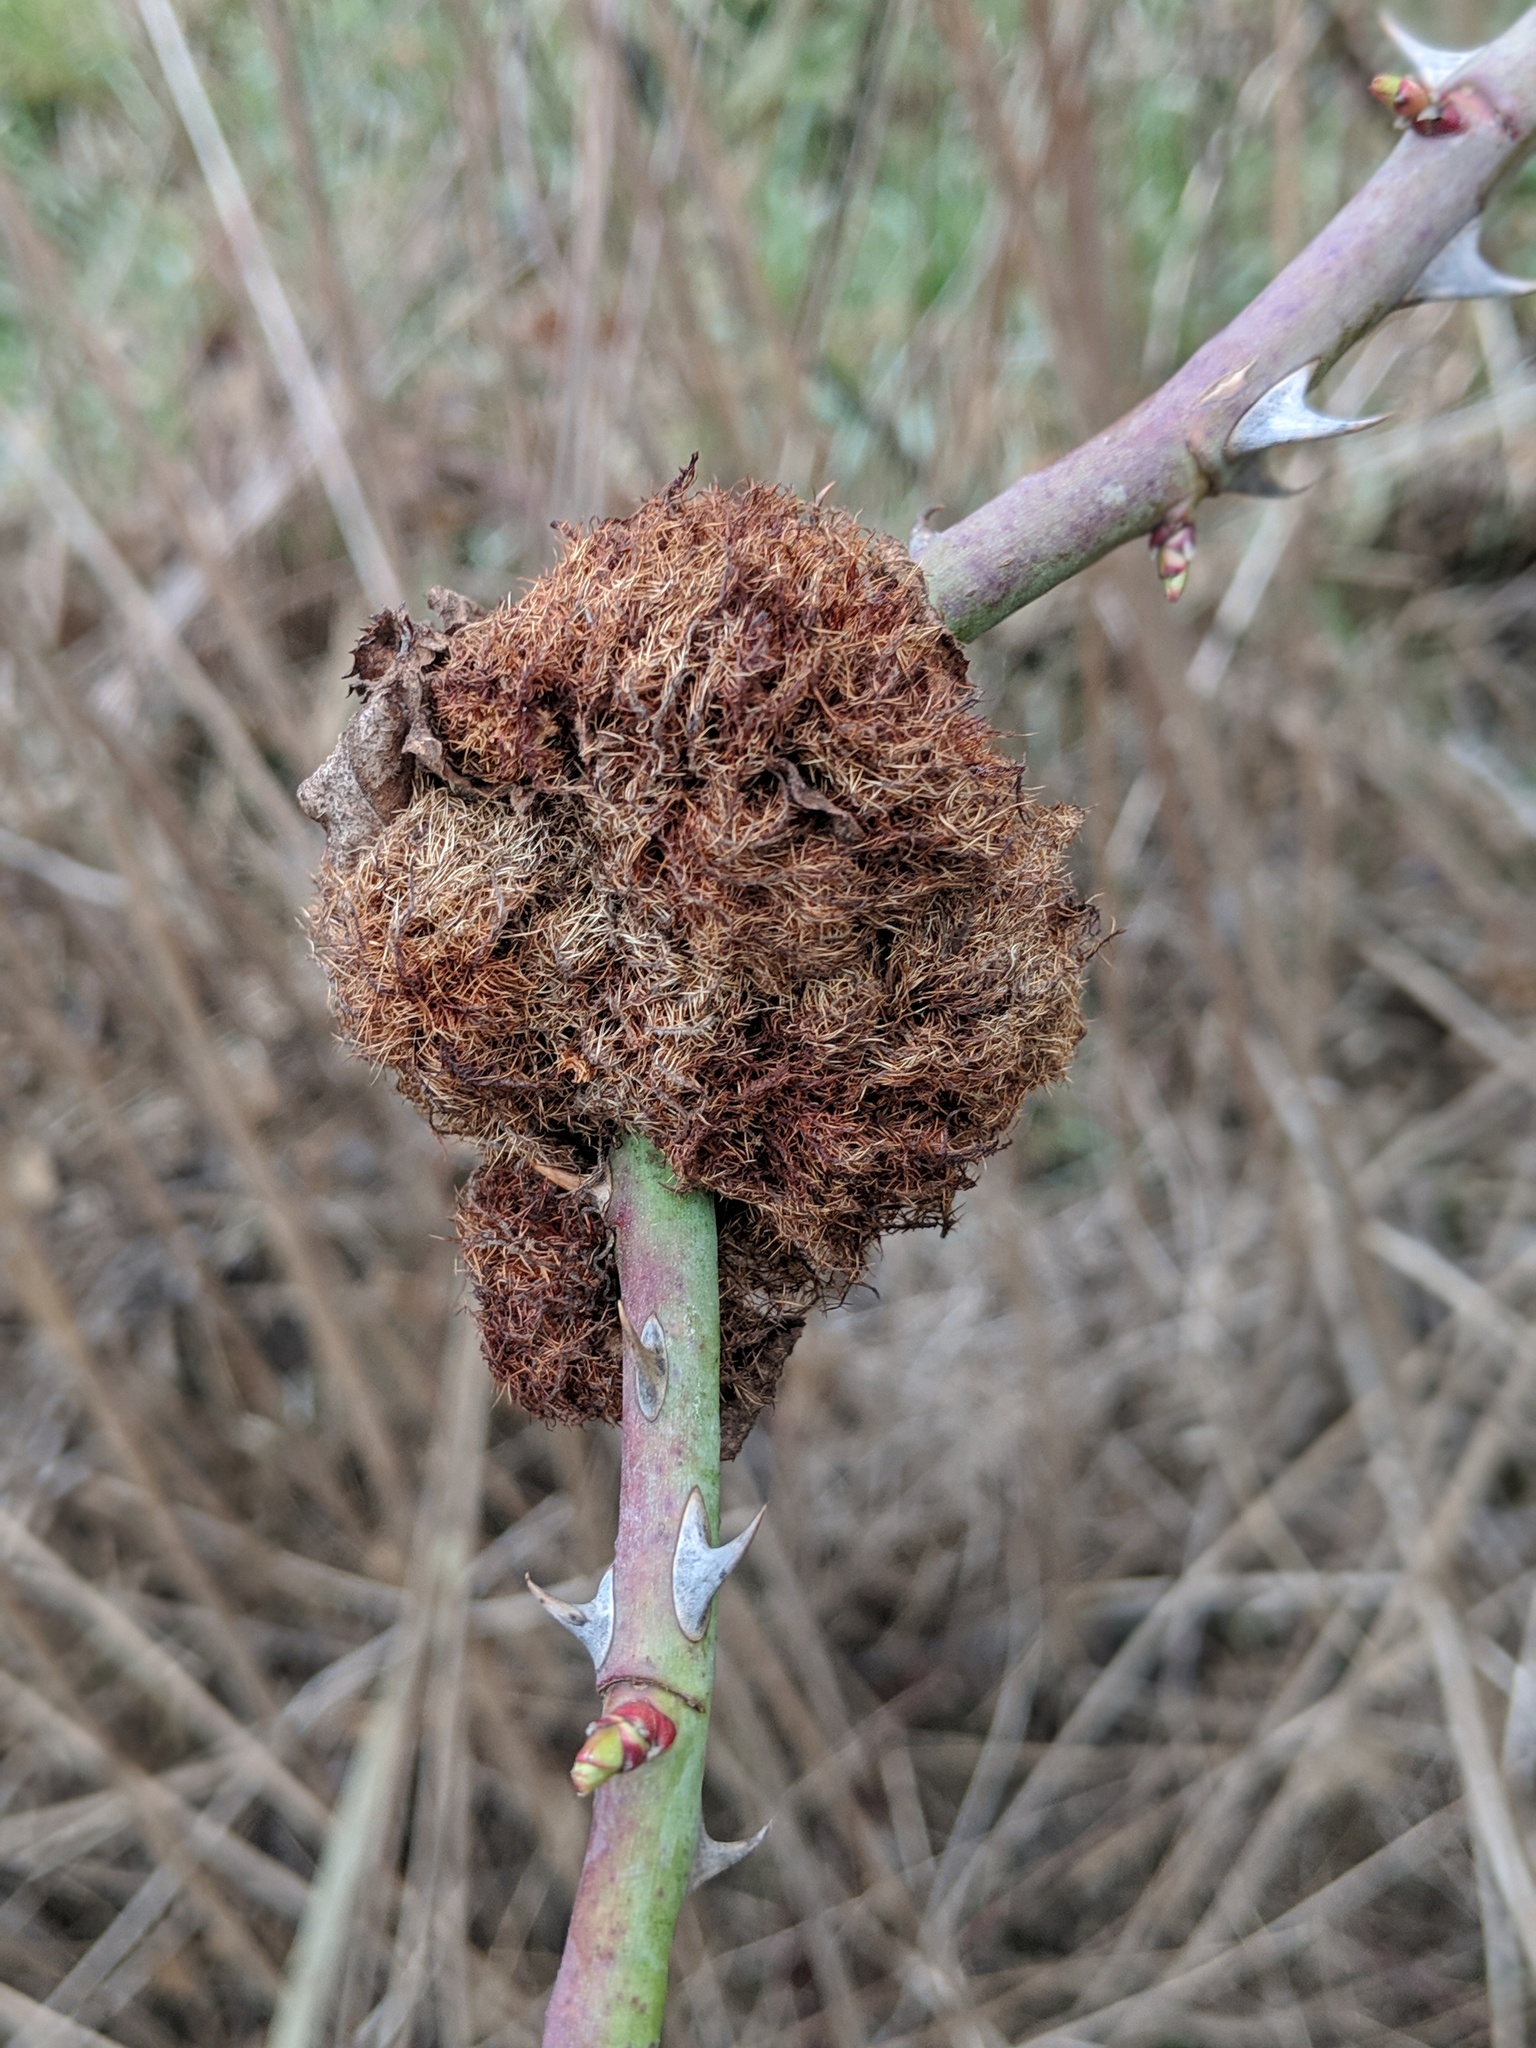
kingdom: Animalia
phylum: Arthropoda
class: Insecta
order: Hymenoptera
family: Cynipidae
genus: Diplolepis
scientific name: Diplolepis rosae
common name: Bedeguar gall
